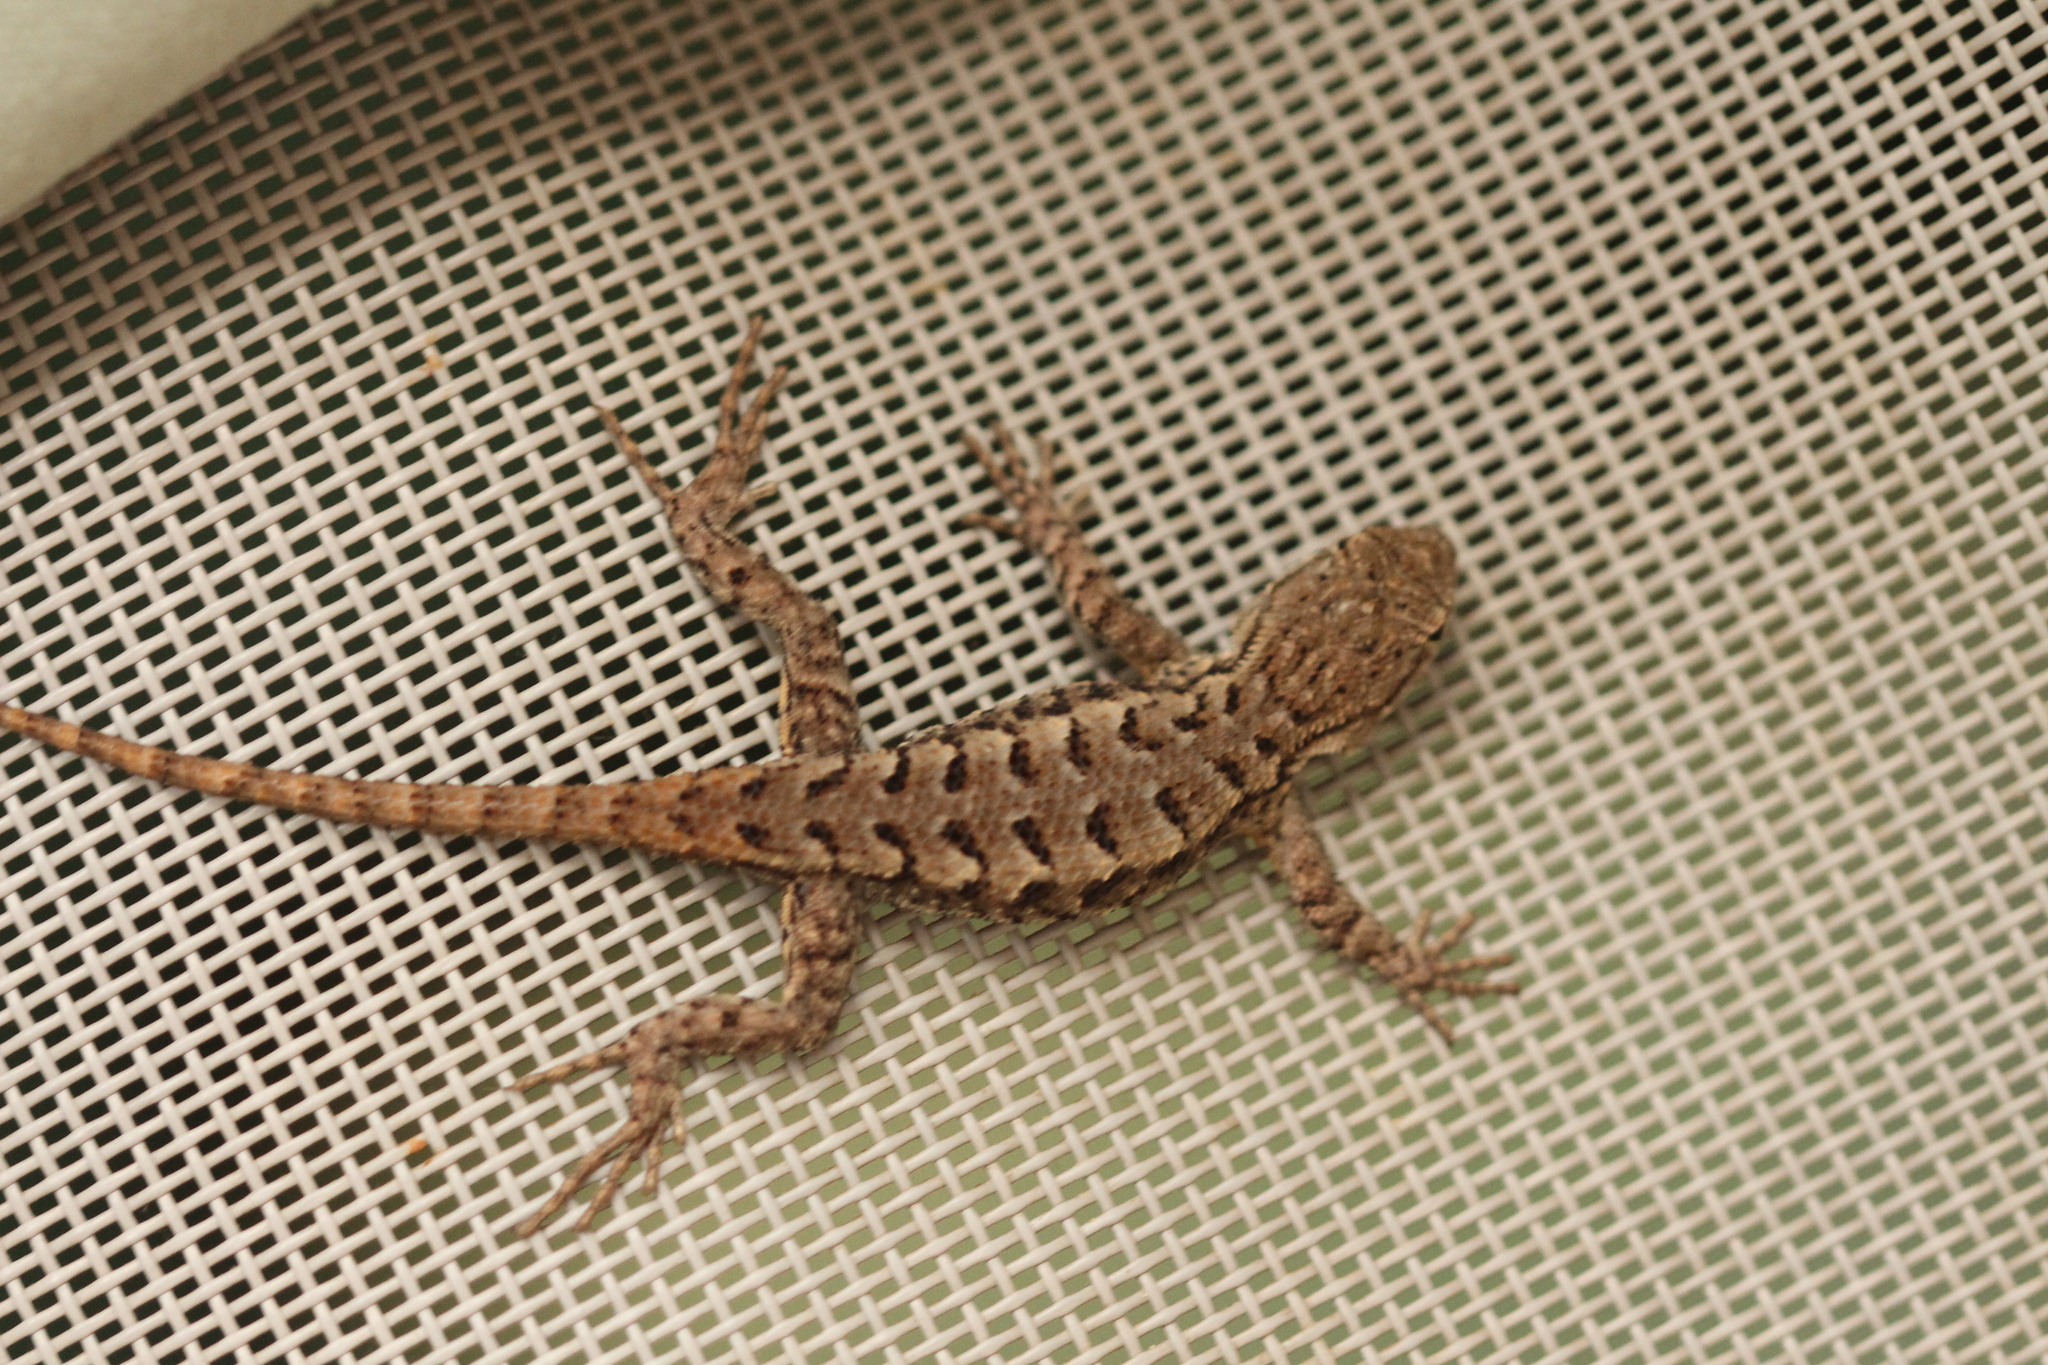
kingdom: Animalia
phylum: Chordata
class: Squamata
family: Phrynosomatidae
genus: Sceloporus
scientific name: Sceloporus occidentalis
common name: Western fence lizard
